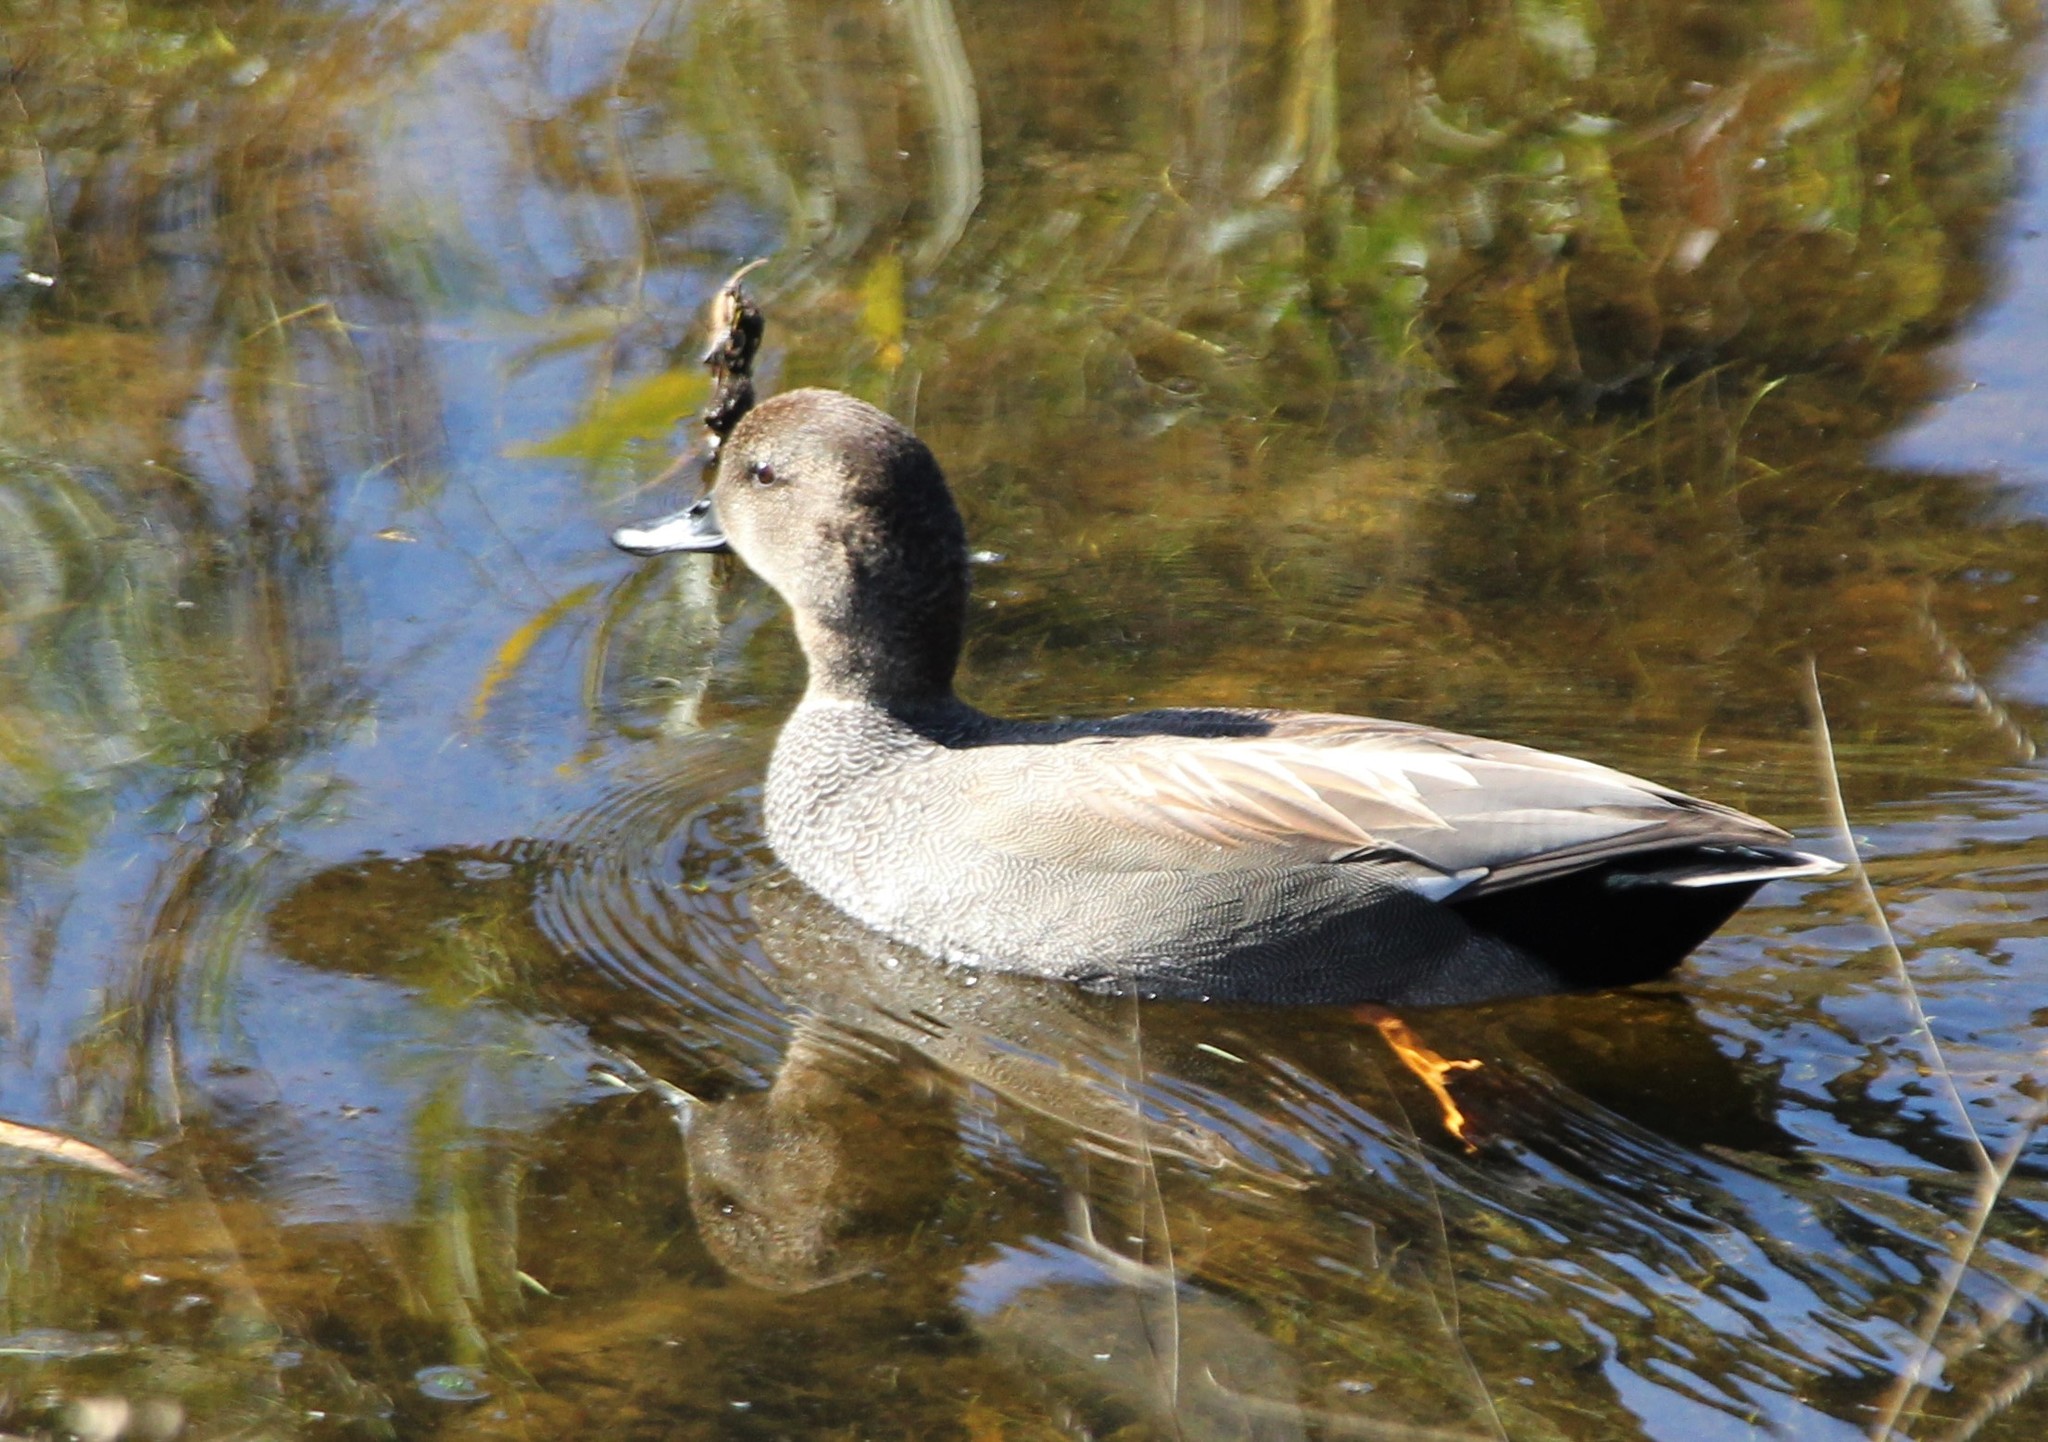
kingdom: Animalia
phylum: Chordata
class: Aves
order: Anseriformes
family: Anatidae
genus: Mareca
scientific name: Mareca strepera
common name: Gadwall
